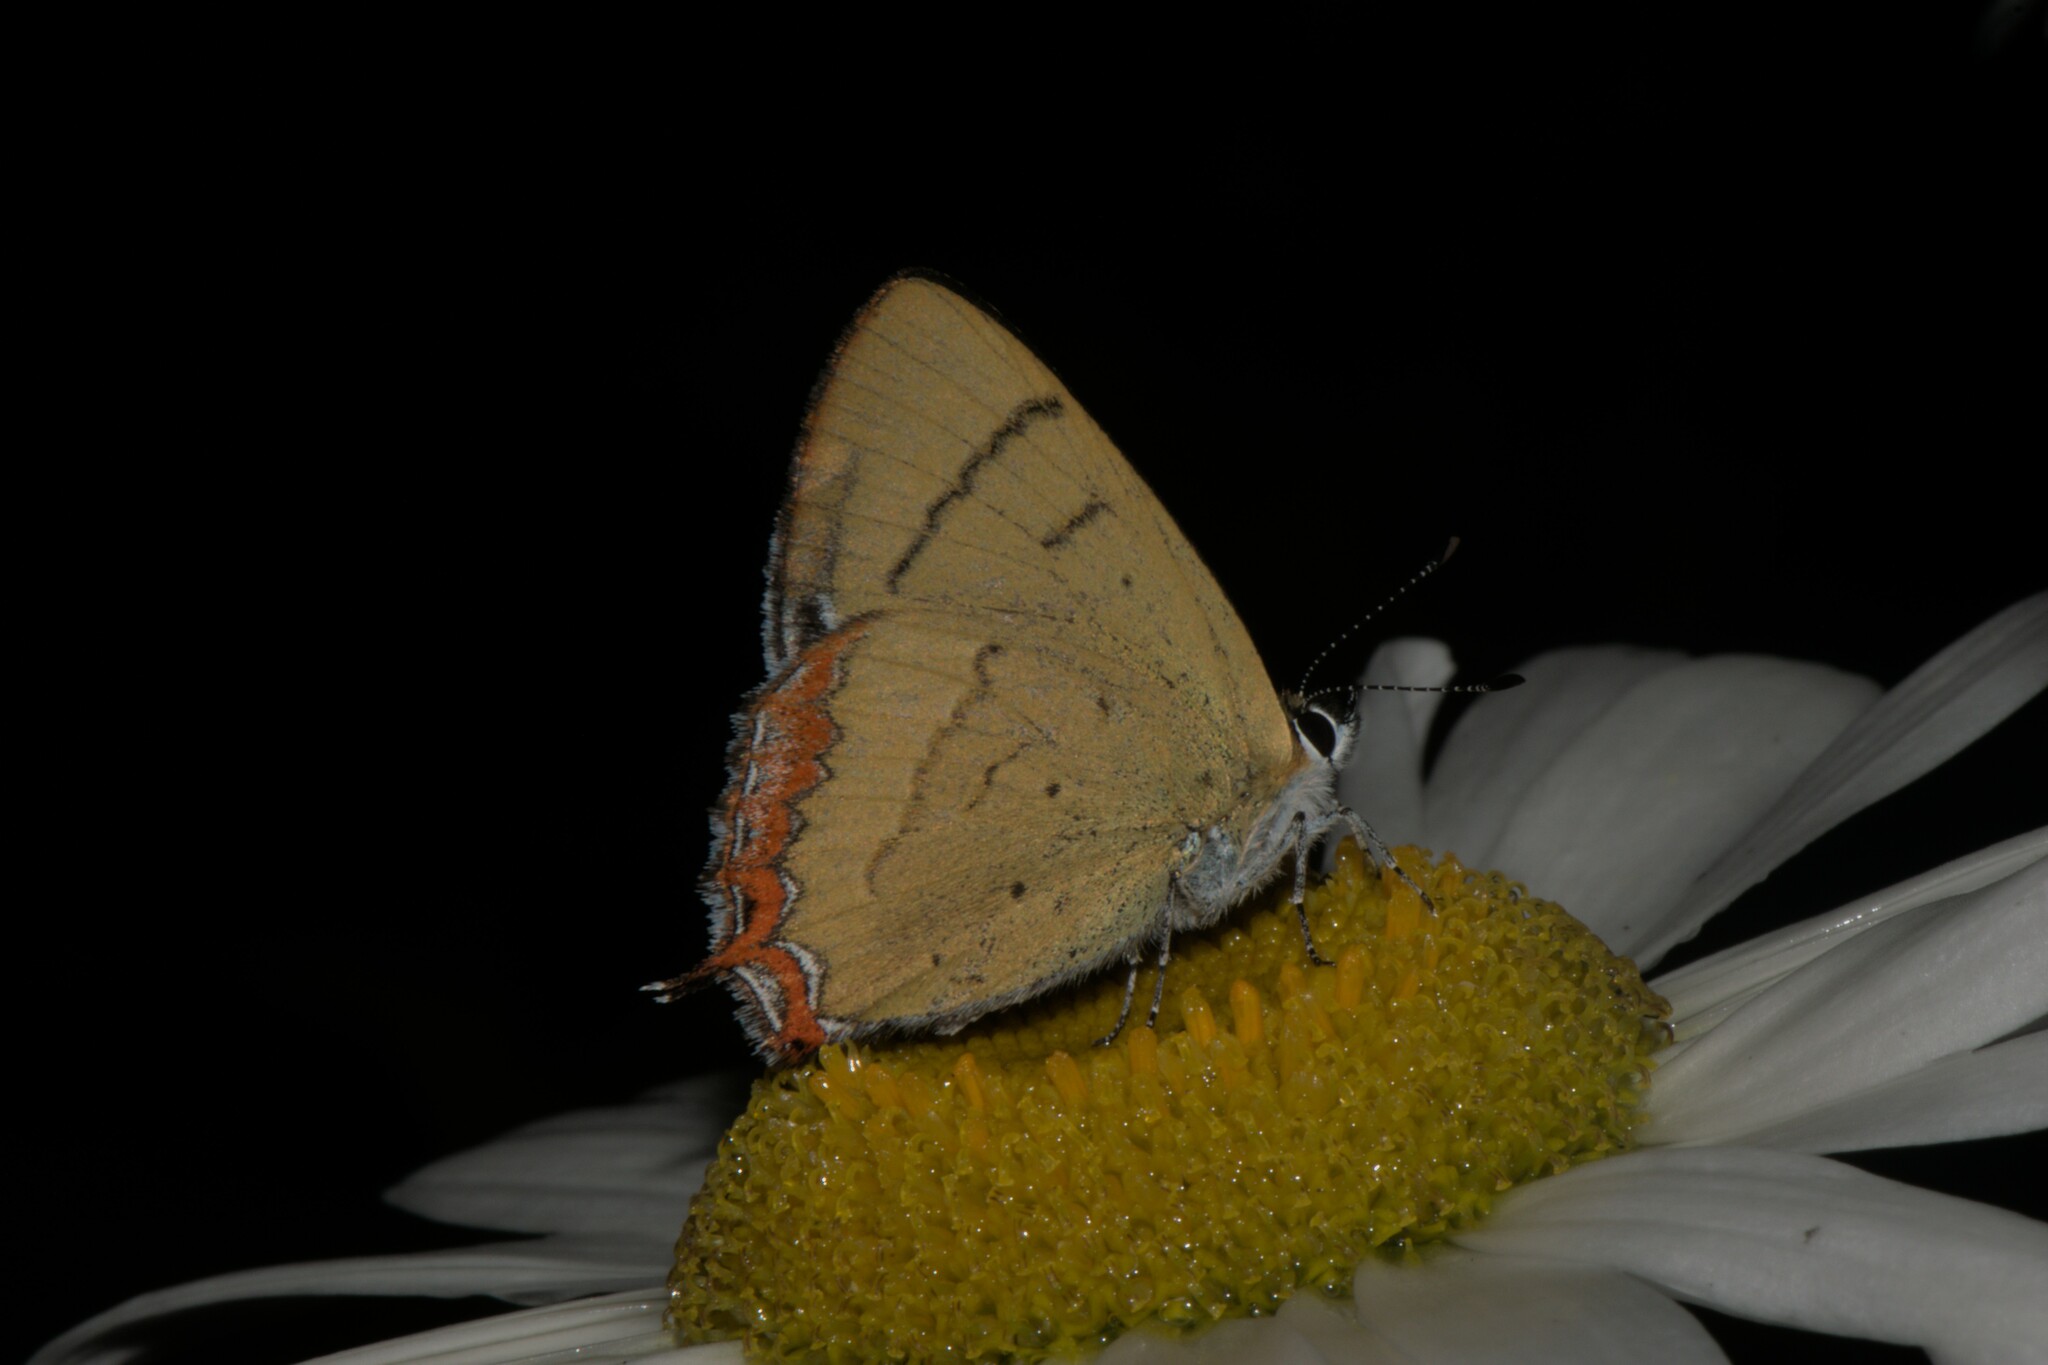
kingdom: Animalia
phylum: Arthropoda
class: Insecta
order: Lepidoptera
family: Lycaenidae
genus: Heliophorus
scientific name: Heliophorus
